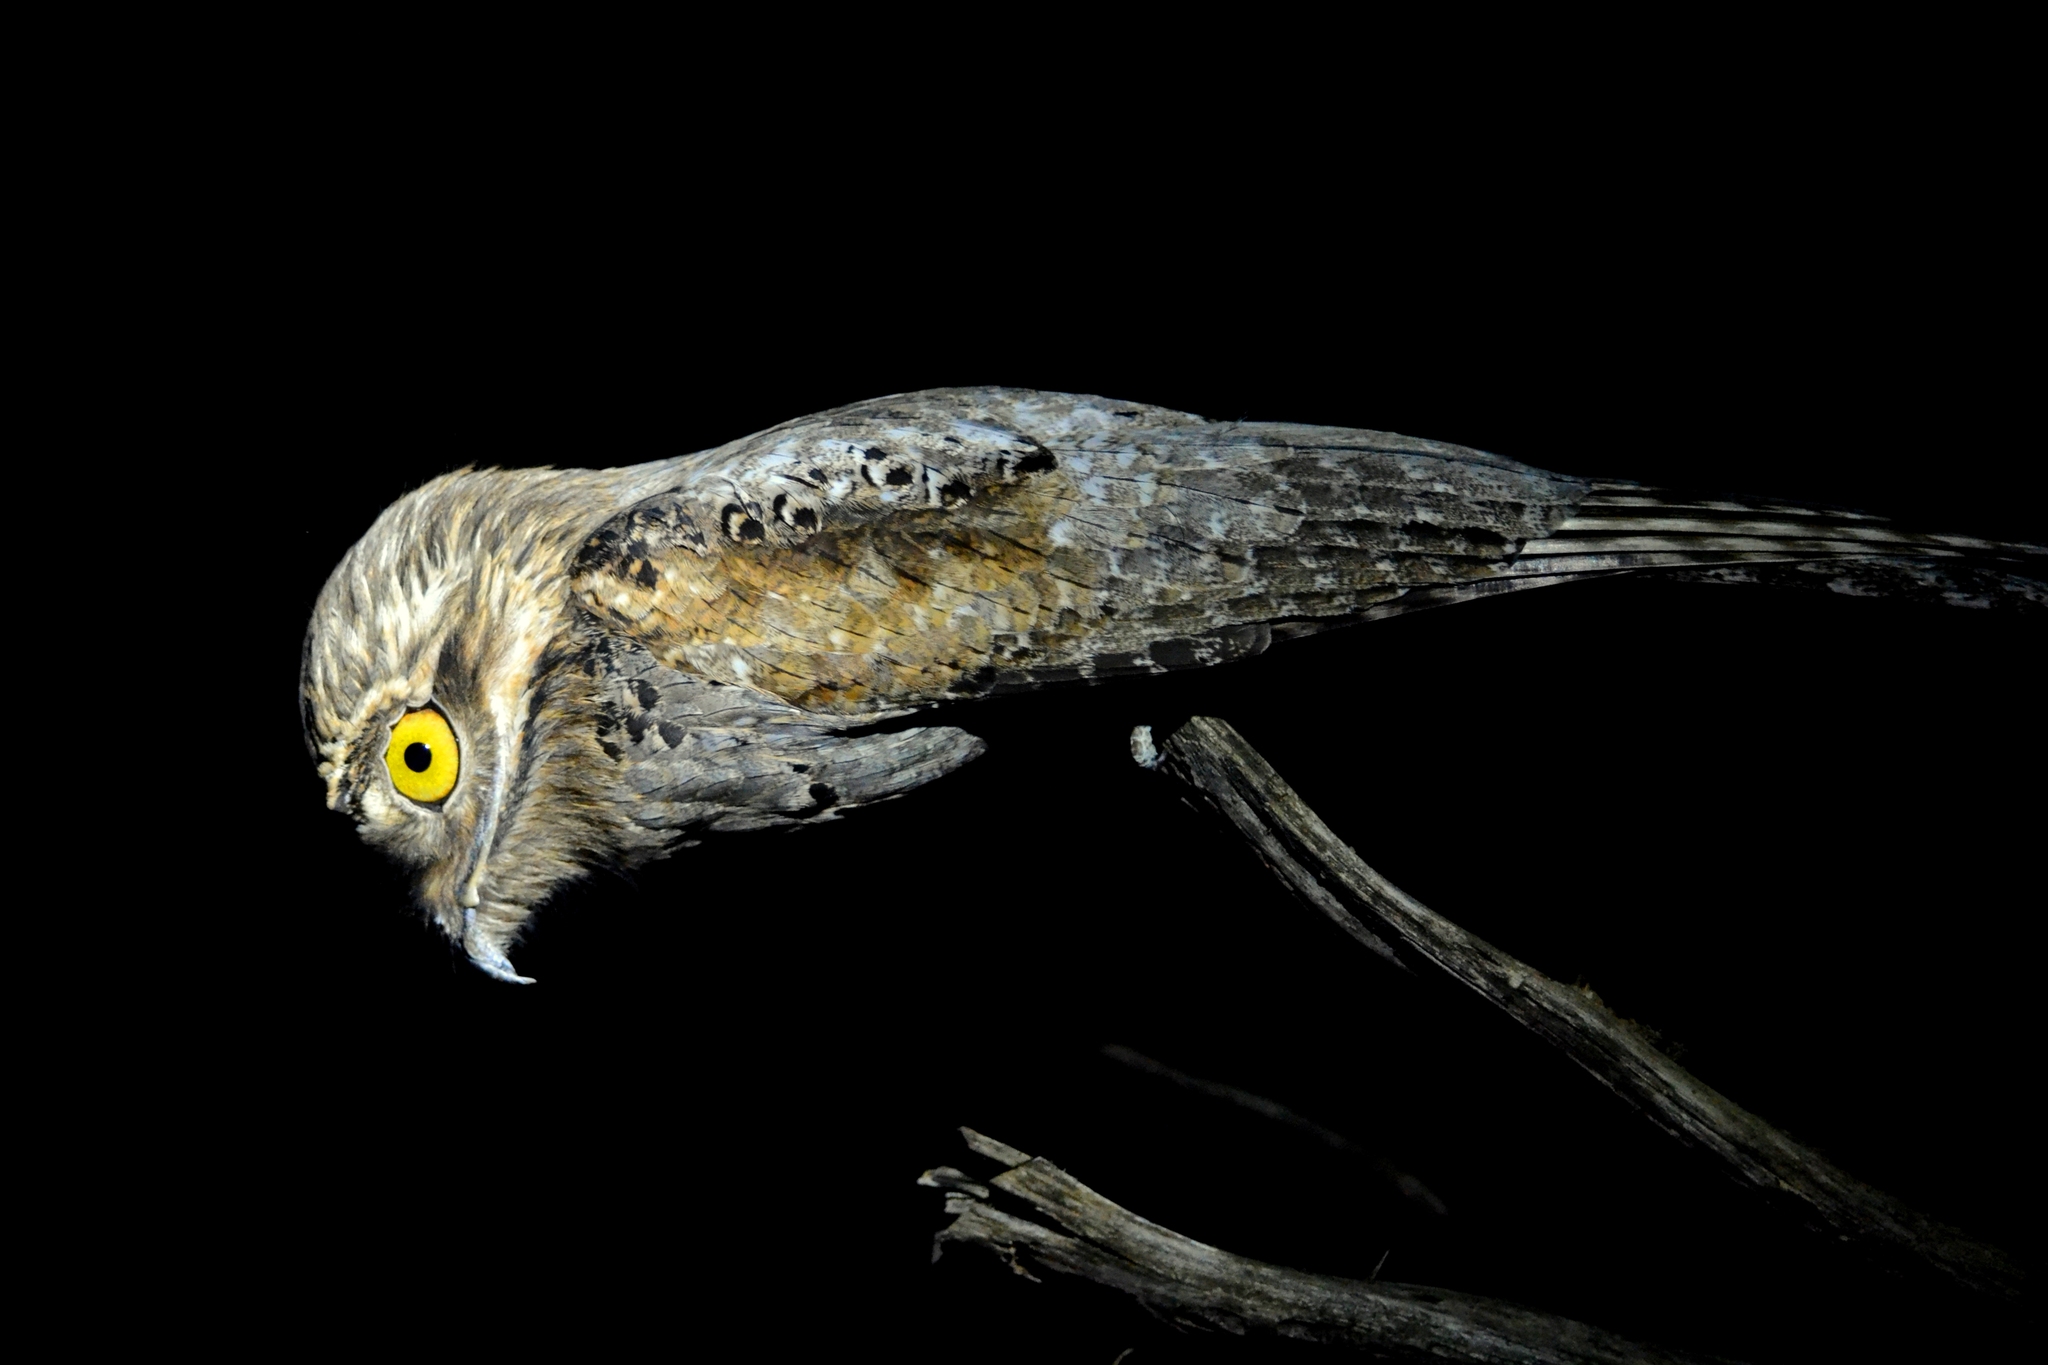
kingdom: Animalia
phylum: Chordata
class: Aves
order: Nyctibiiformes
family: Nyctibiidae
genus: Nyctibius
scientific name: Nyctibius jamaicensis
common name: Northern potoo
